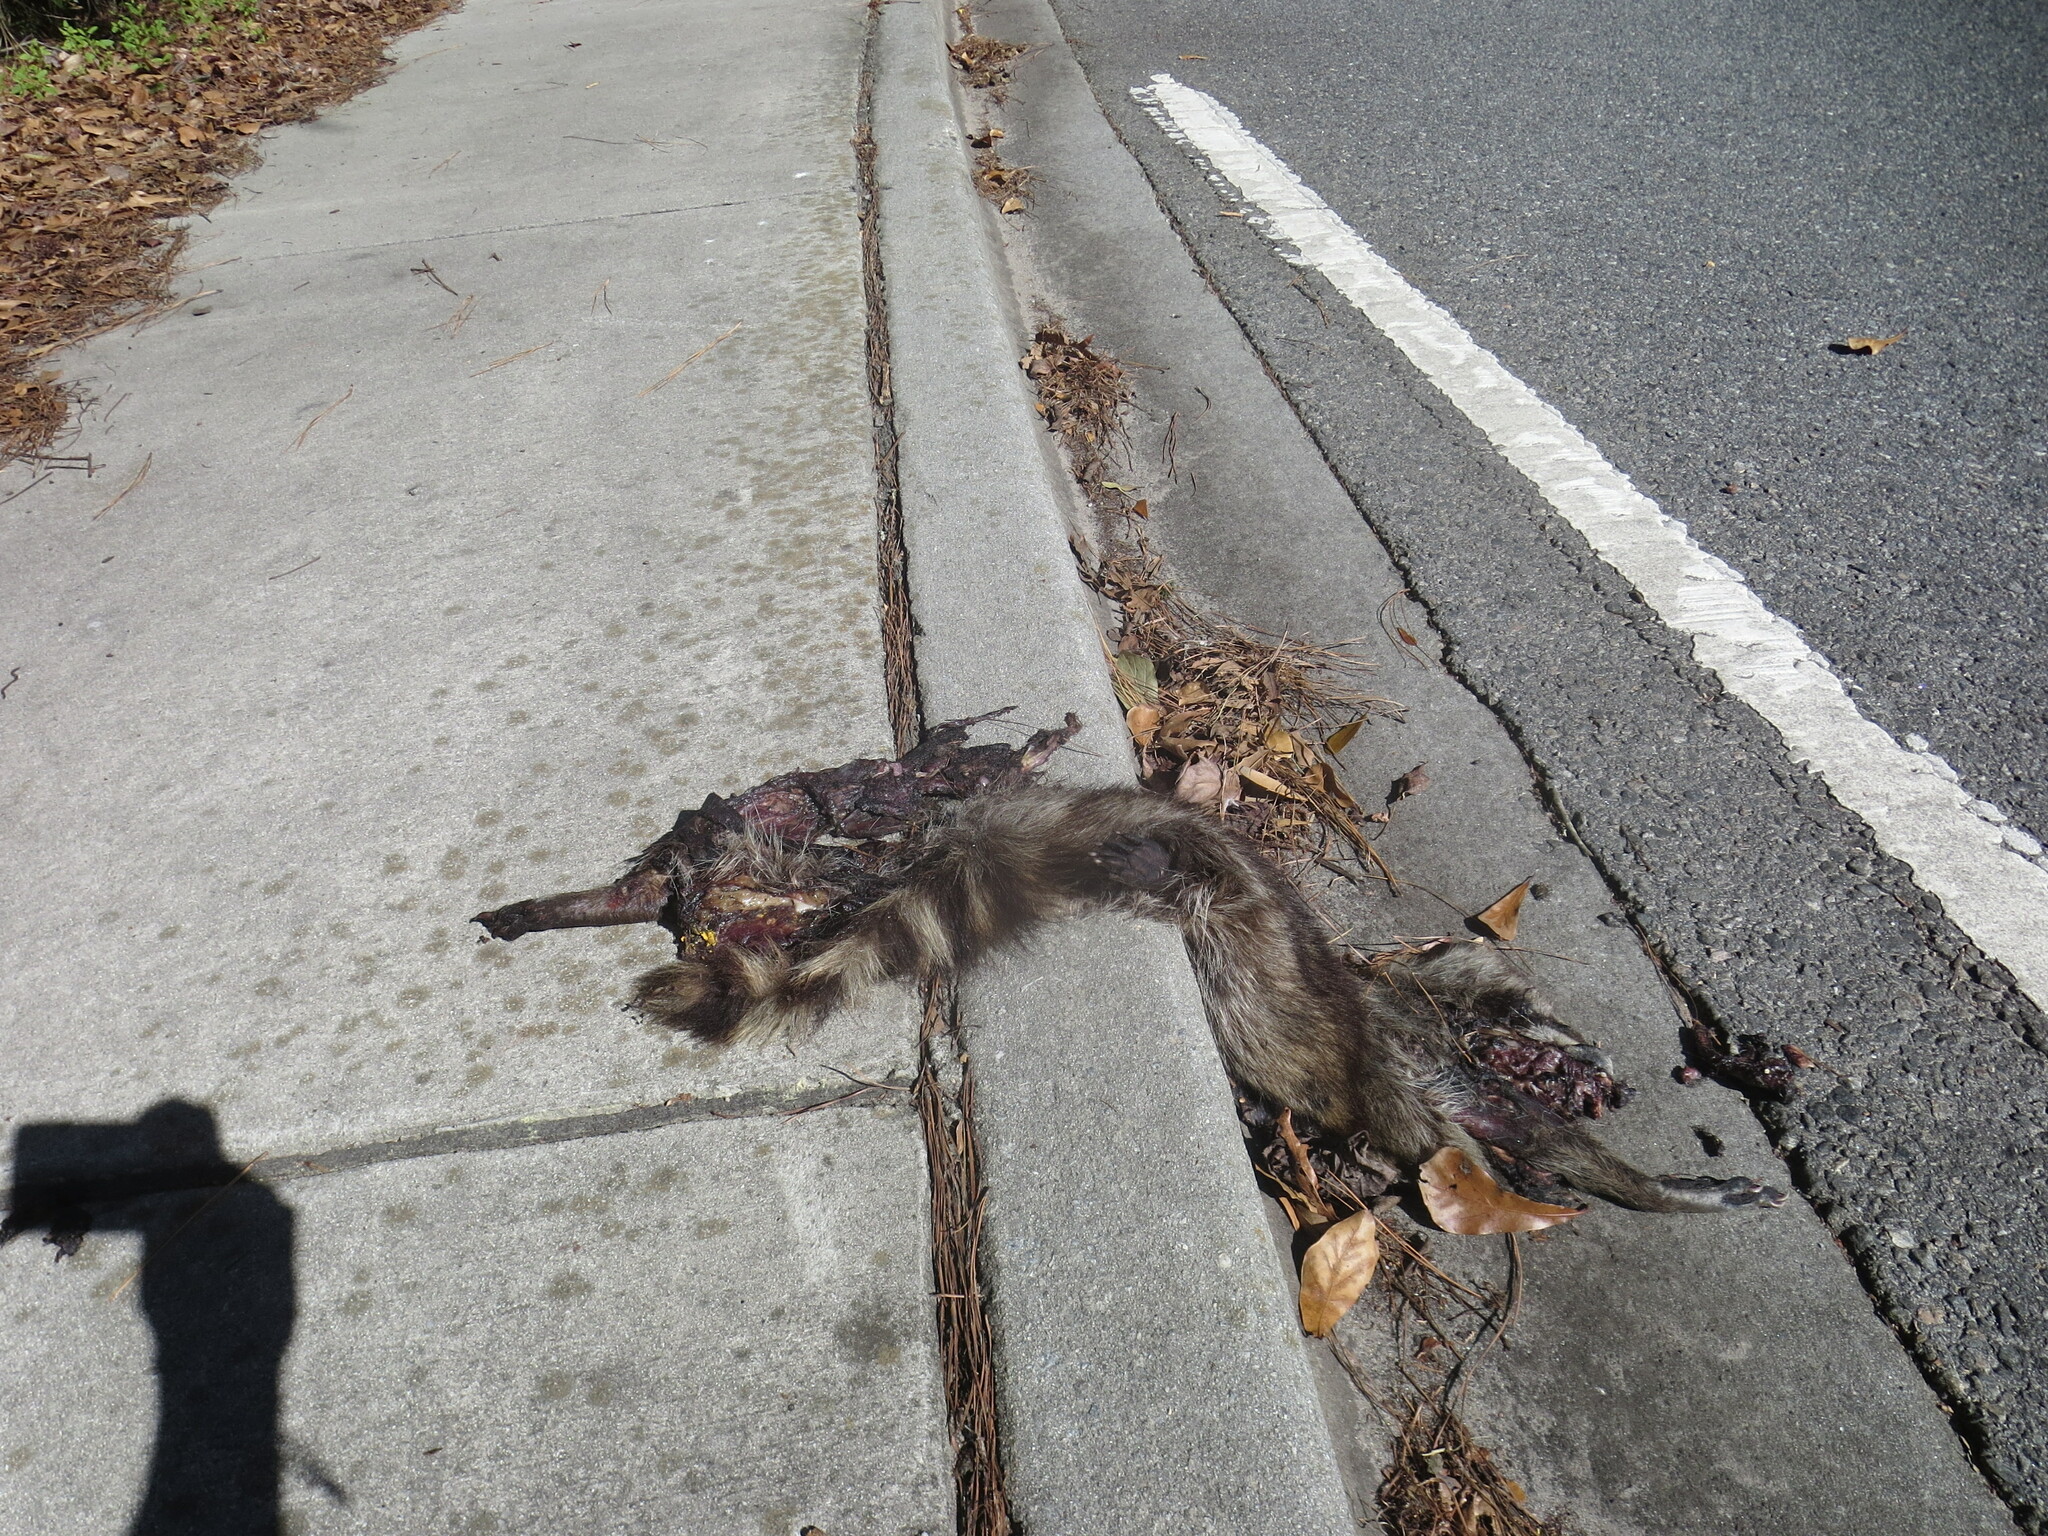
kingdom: Animalia
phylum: Chordata
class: Mammalia
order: Carnivora
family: Procyonidae
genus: Procyon
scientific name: Procyon lotor
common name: Raccoon
